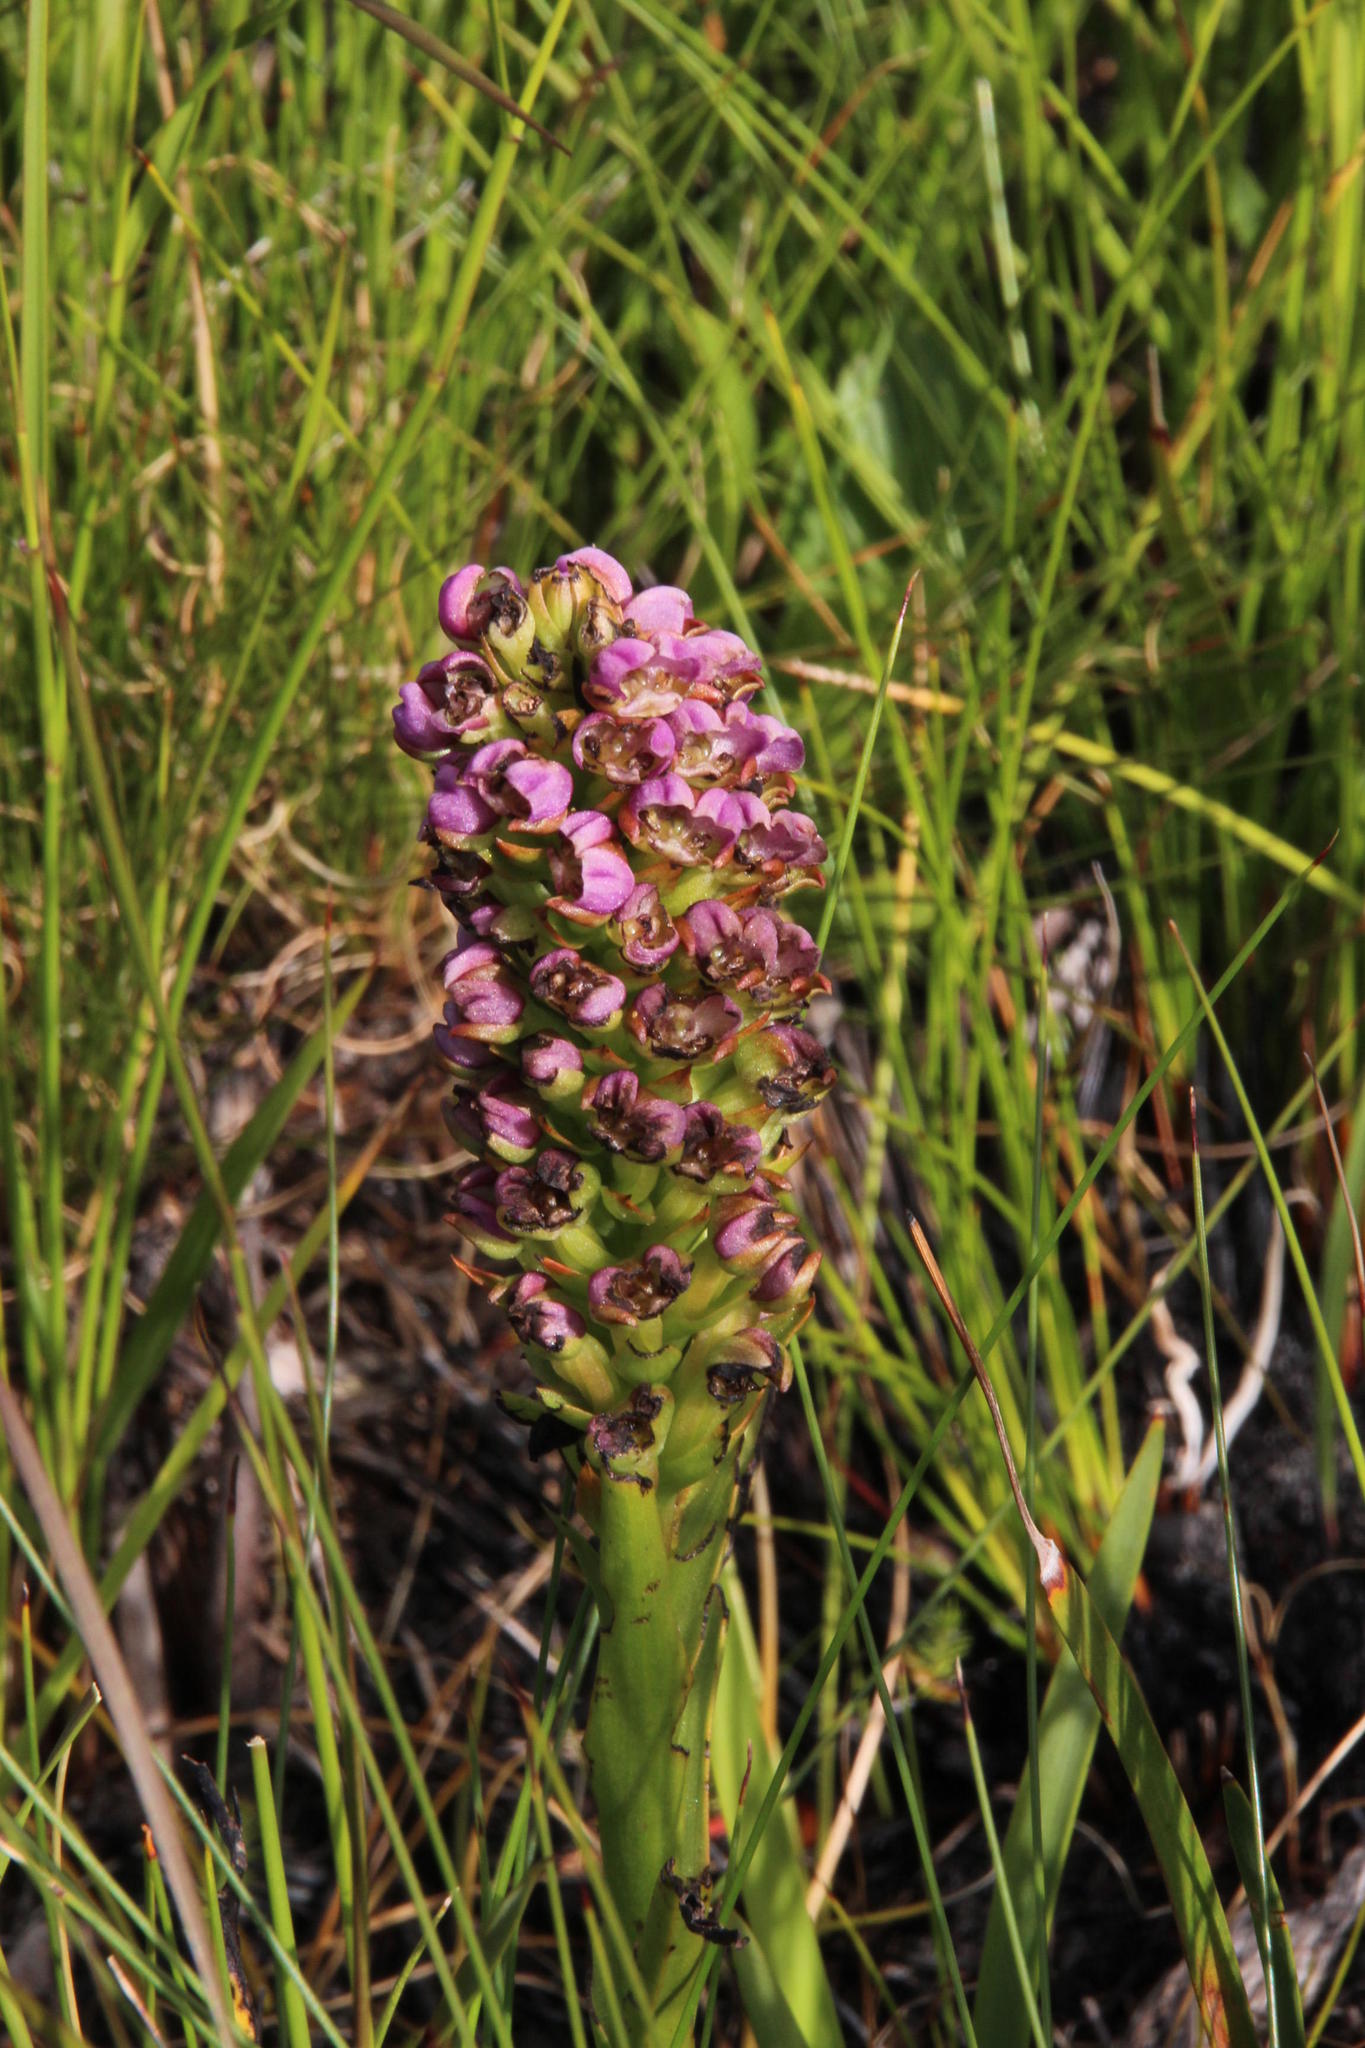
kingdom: Plantae
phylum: Tracheophyta
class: Liliopsida
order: Asparagales
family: Orchidaceae
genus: Evotella
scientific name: Evotella carnosa
